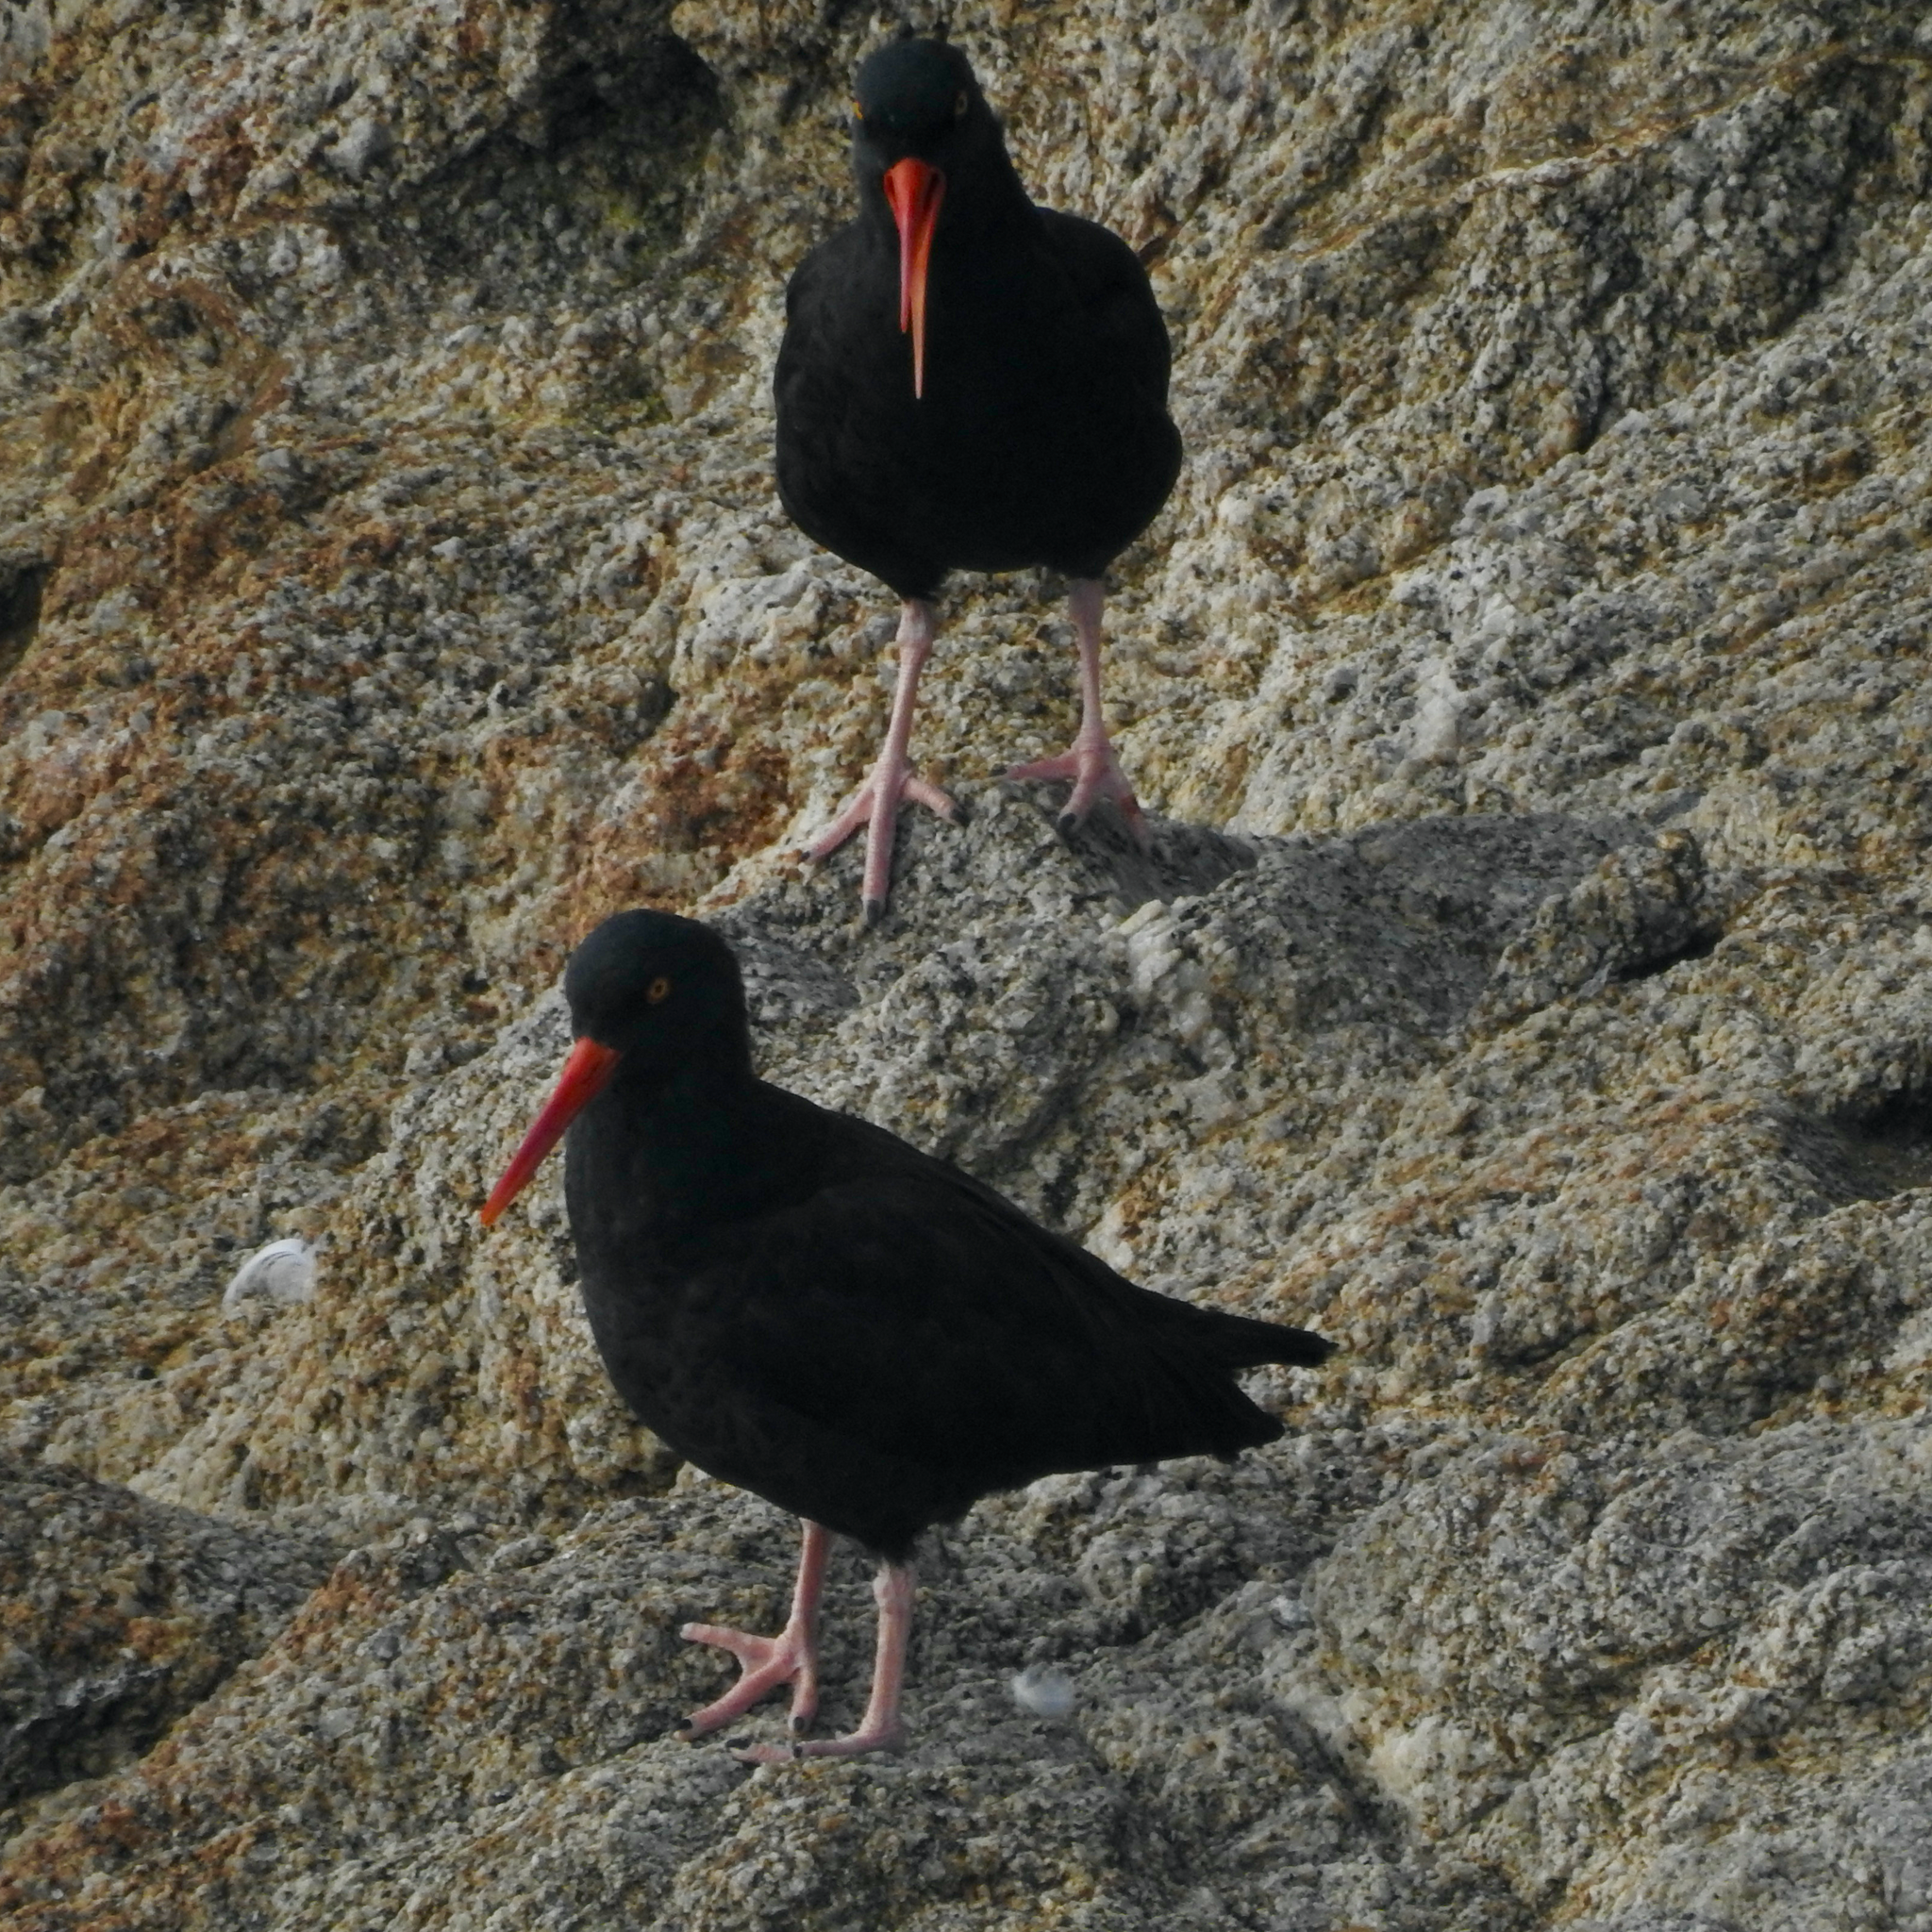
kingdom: Animalia
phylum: Chordata
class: Aves
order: Charadriiformes
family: Haematopodidae
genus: Haematopus
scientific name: Haematopus bachmani
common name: Black oystercatcher
